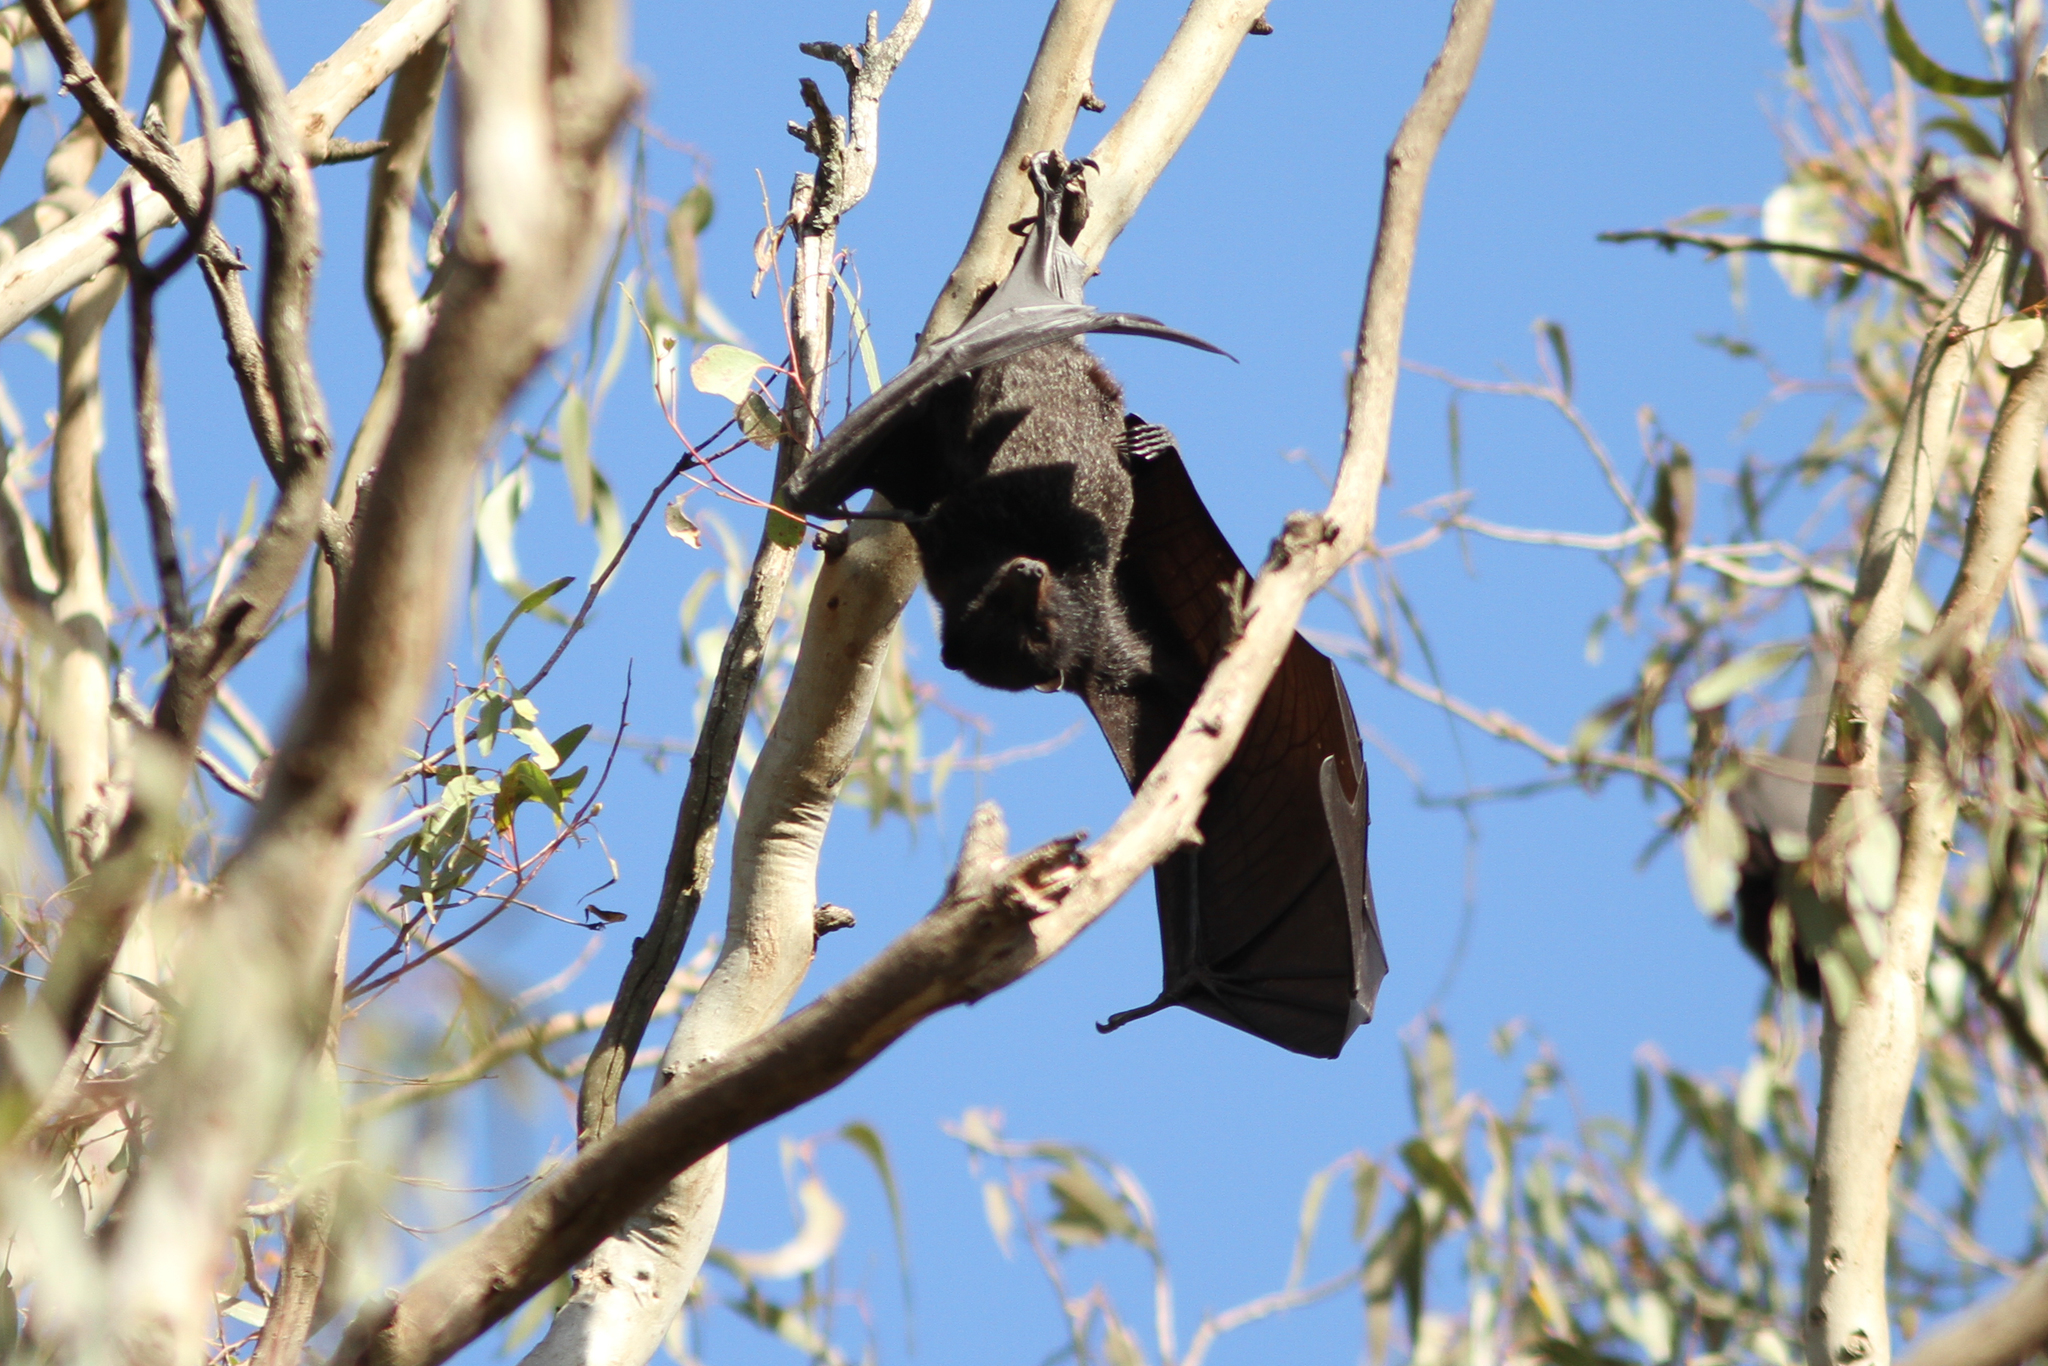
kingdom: Animalia
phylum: Chordata
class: Mammalia
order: Chiroptera
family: Pteropodidae
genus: Pteropus
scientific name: Pteropus alecto
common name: Black flying fox
